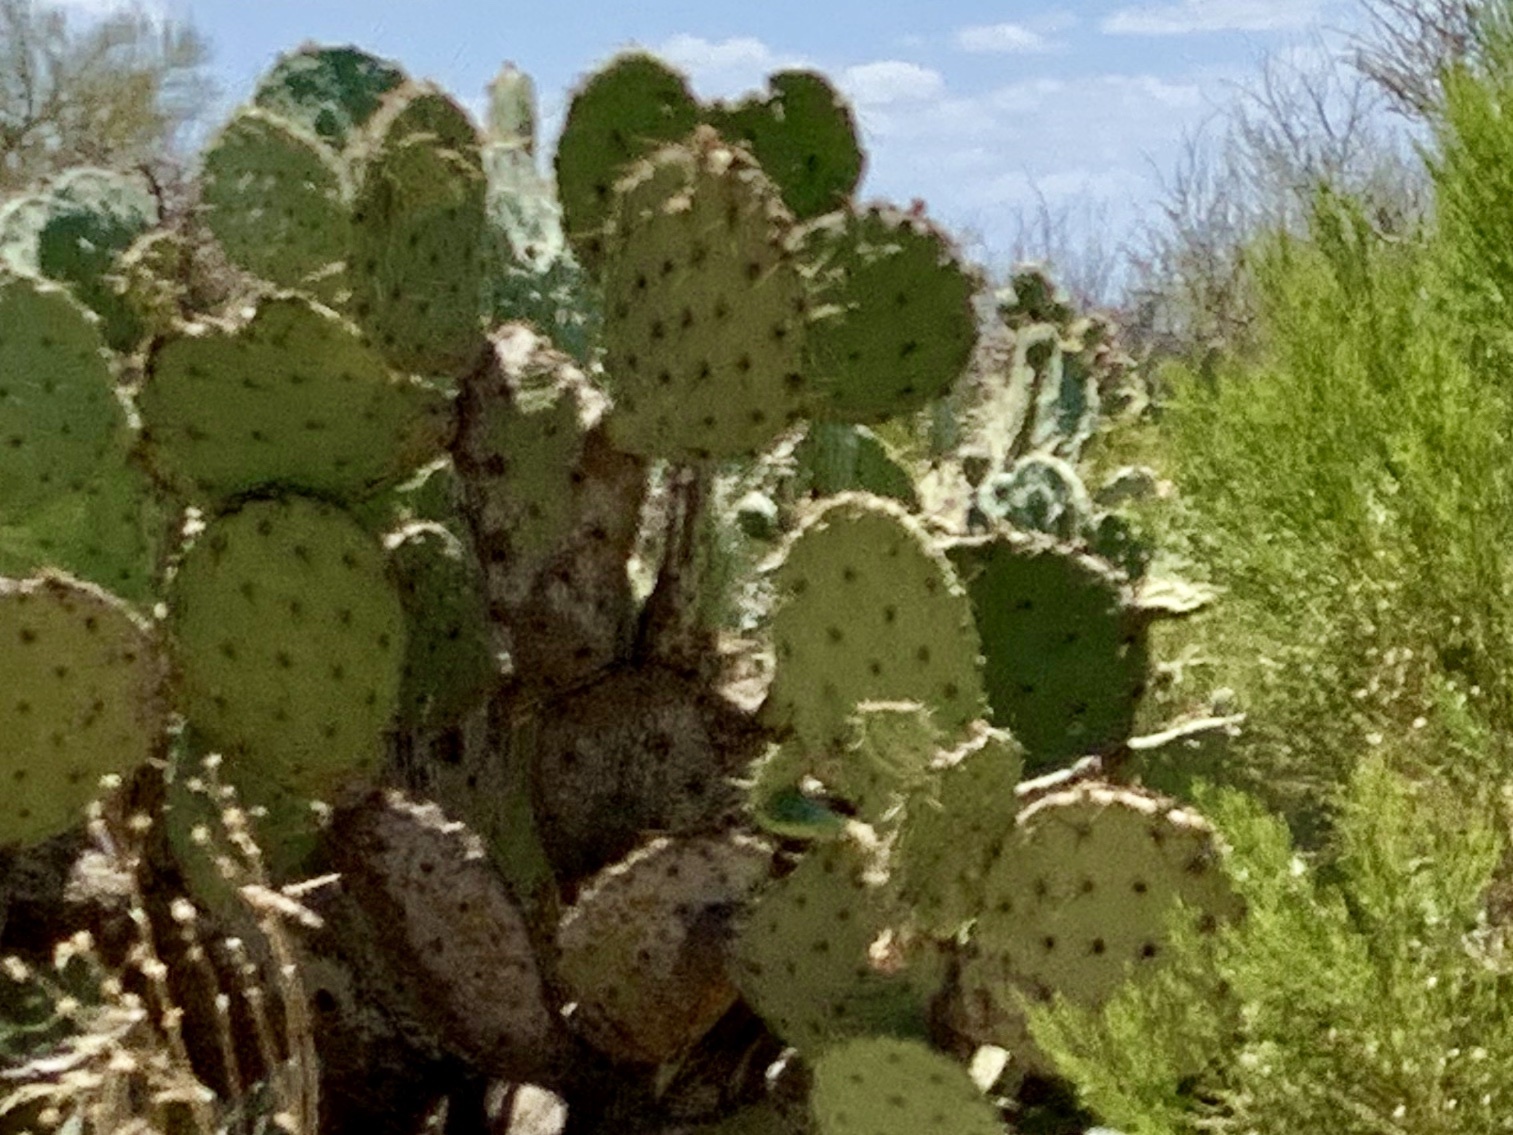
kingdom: Plantae
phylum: Tracheophyta
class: Magnoliopsida
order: Caryophyllales
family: Cactaceae
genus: Opuntia
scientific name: Opuntia engelmannii
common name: Cactus-apple
